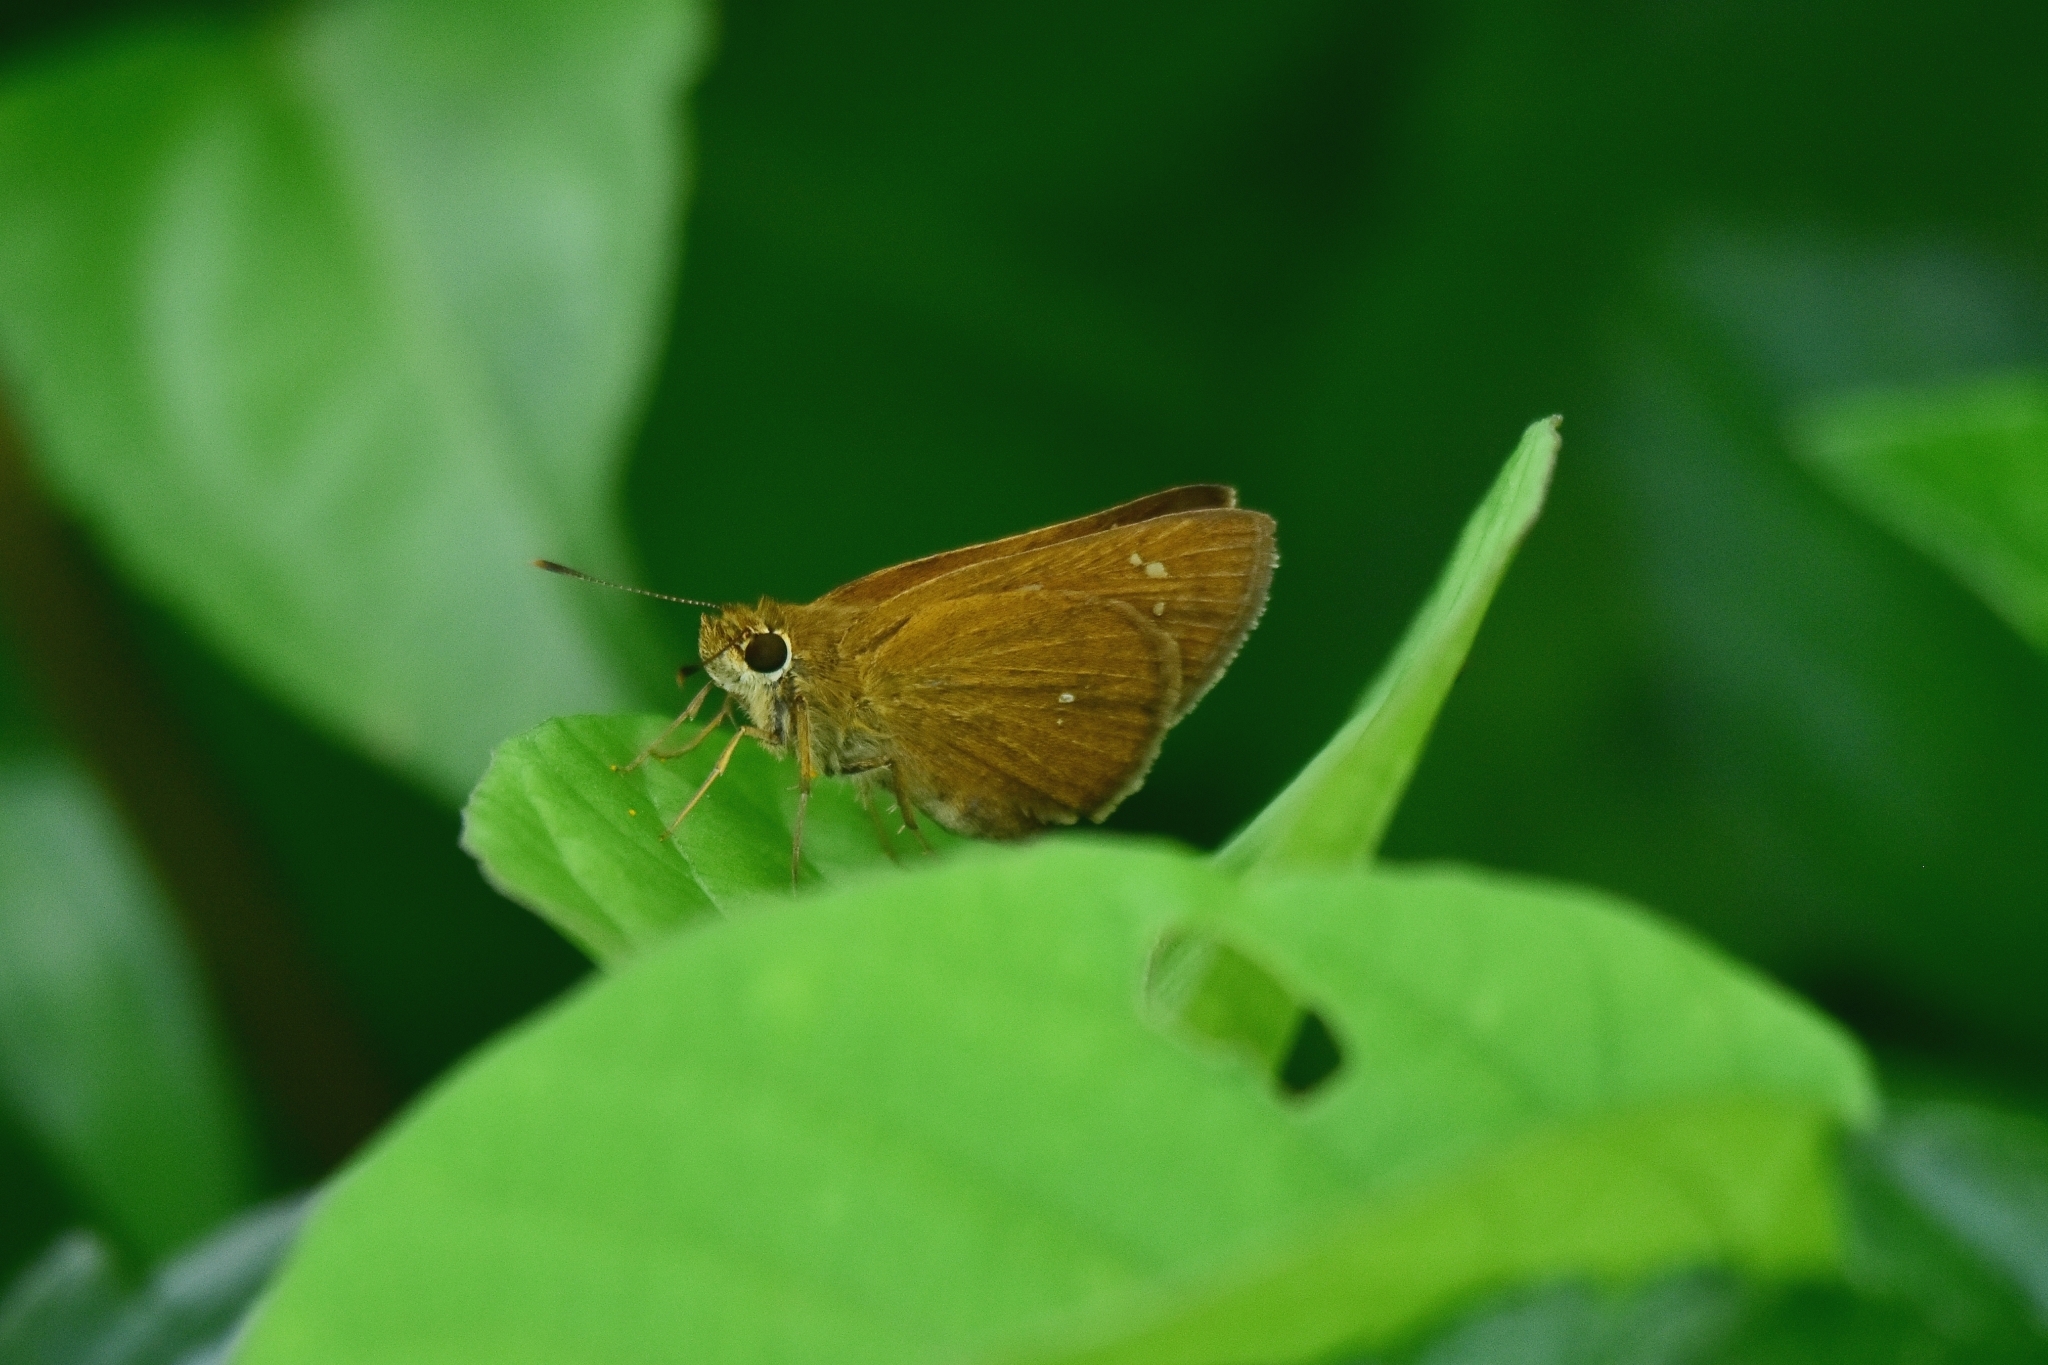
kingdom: Animalia
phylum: Arthropoda
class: Insecta
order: Lepidoptera
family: Hesperiidae
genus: Polytremis
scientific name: Polytremis lubricans
